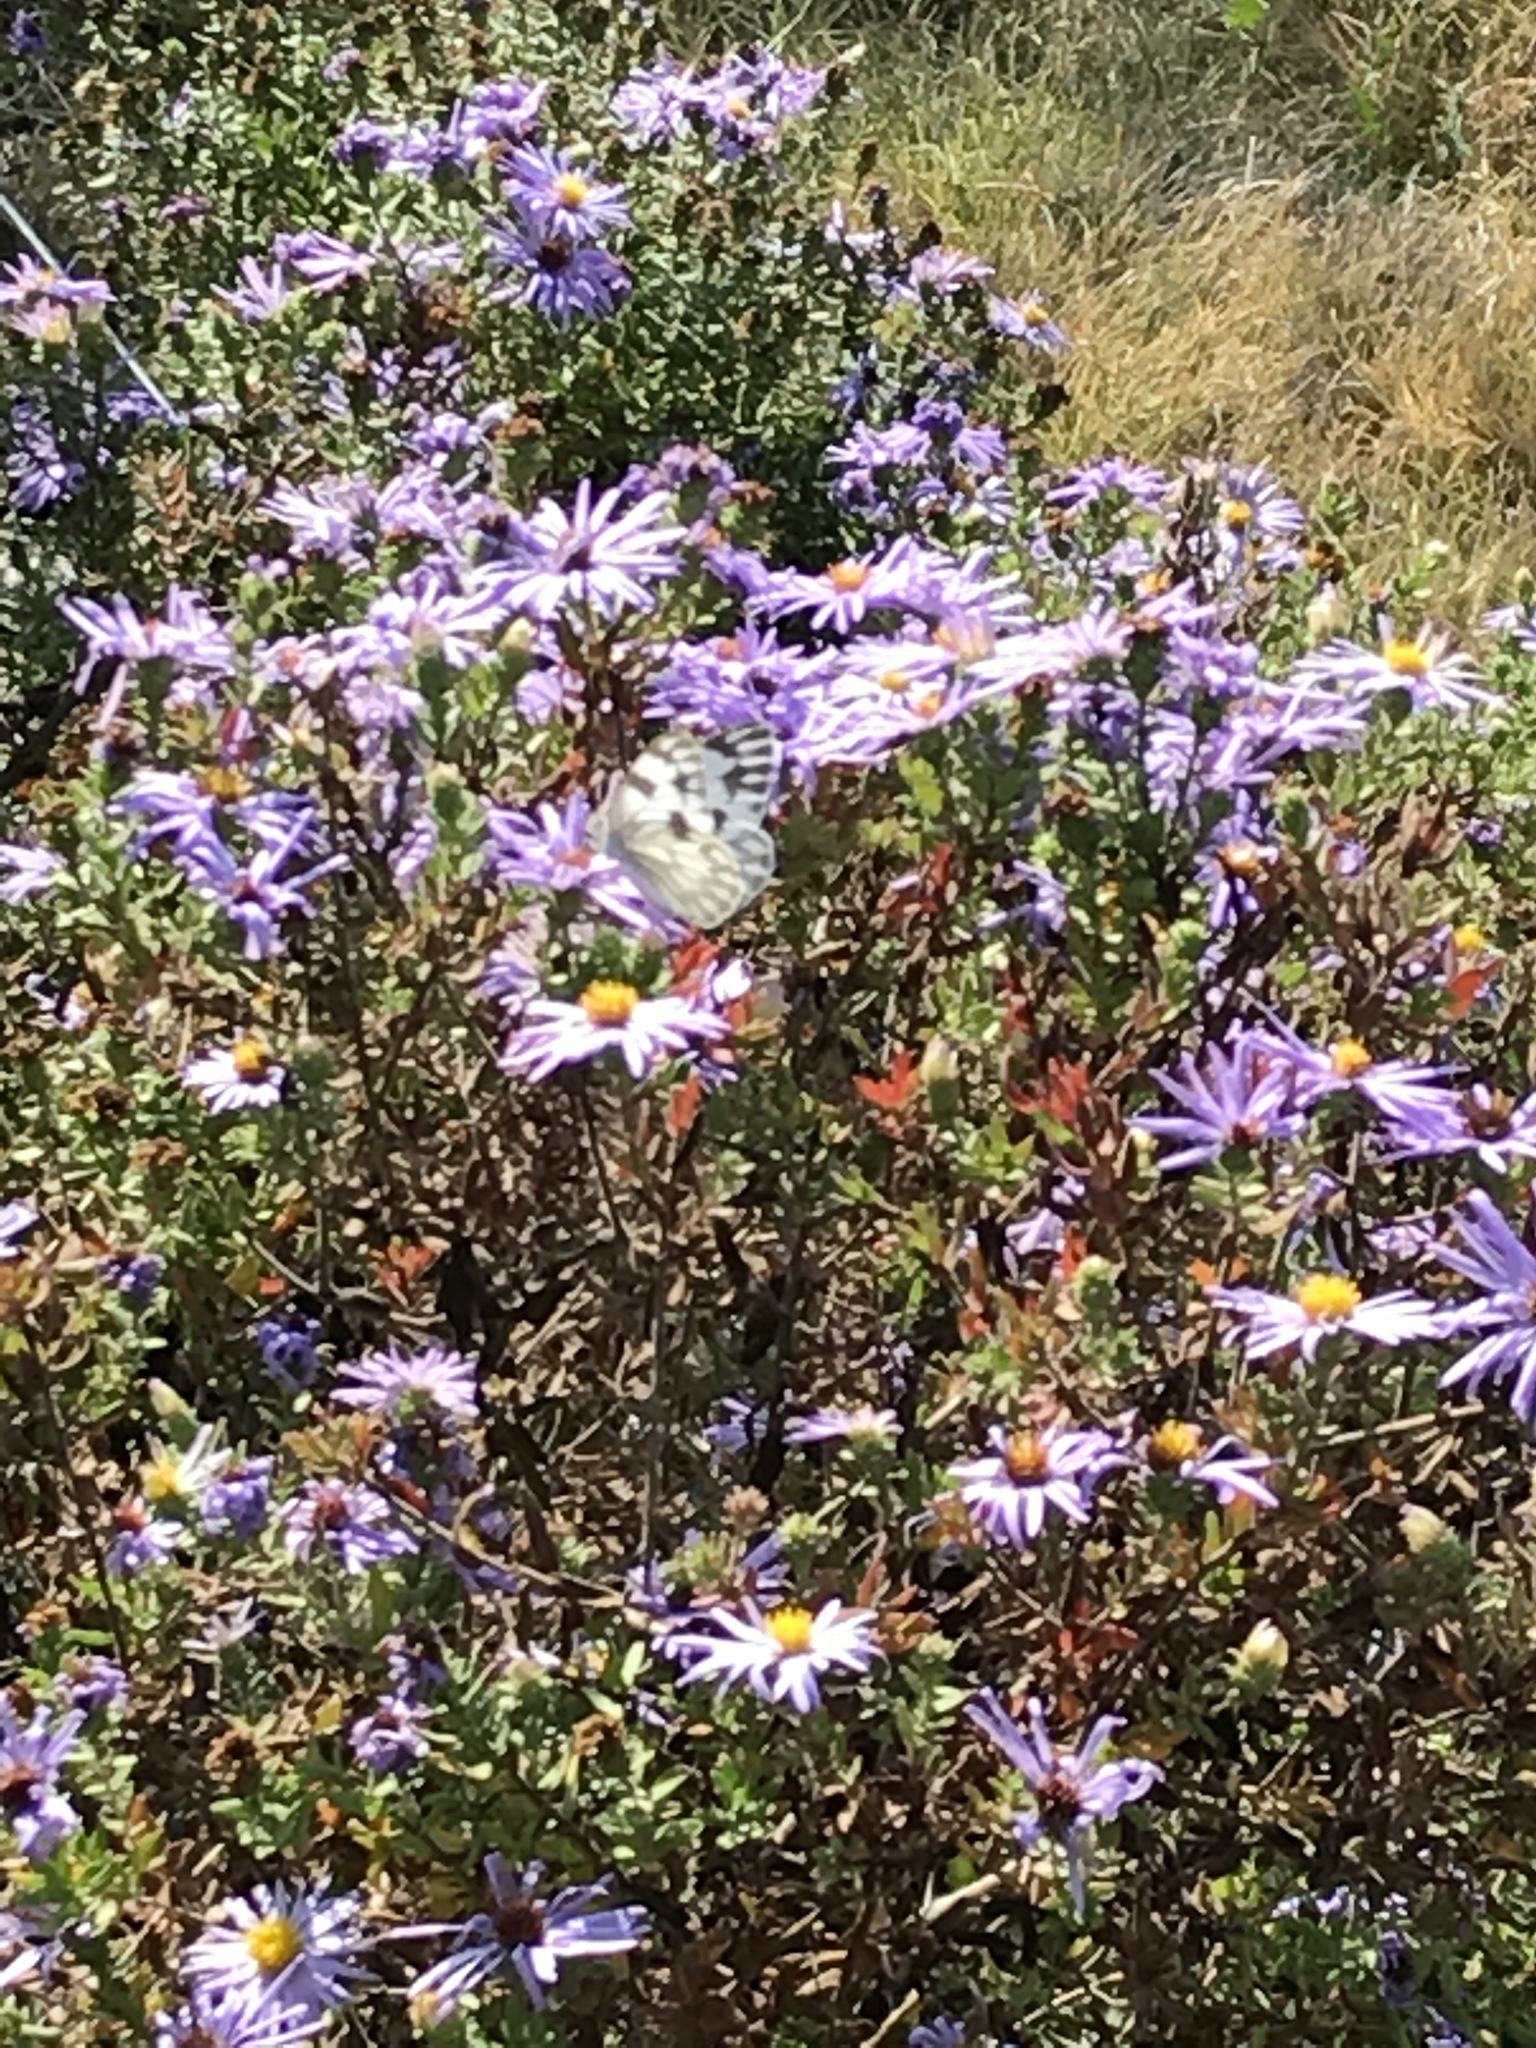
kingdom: Animalia
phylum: Arthropoda
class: Insecta
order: Lepidoptera
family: Pieridae
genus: Pontia
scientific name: Pontia protodice
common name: Checkered white
